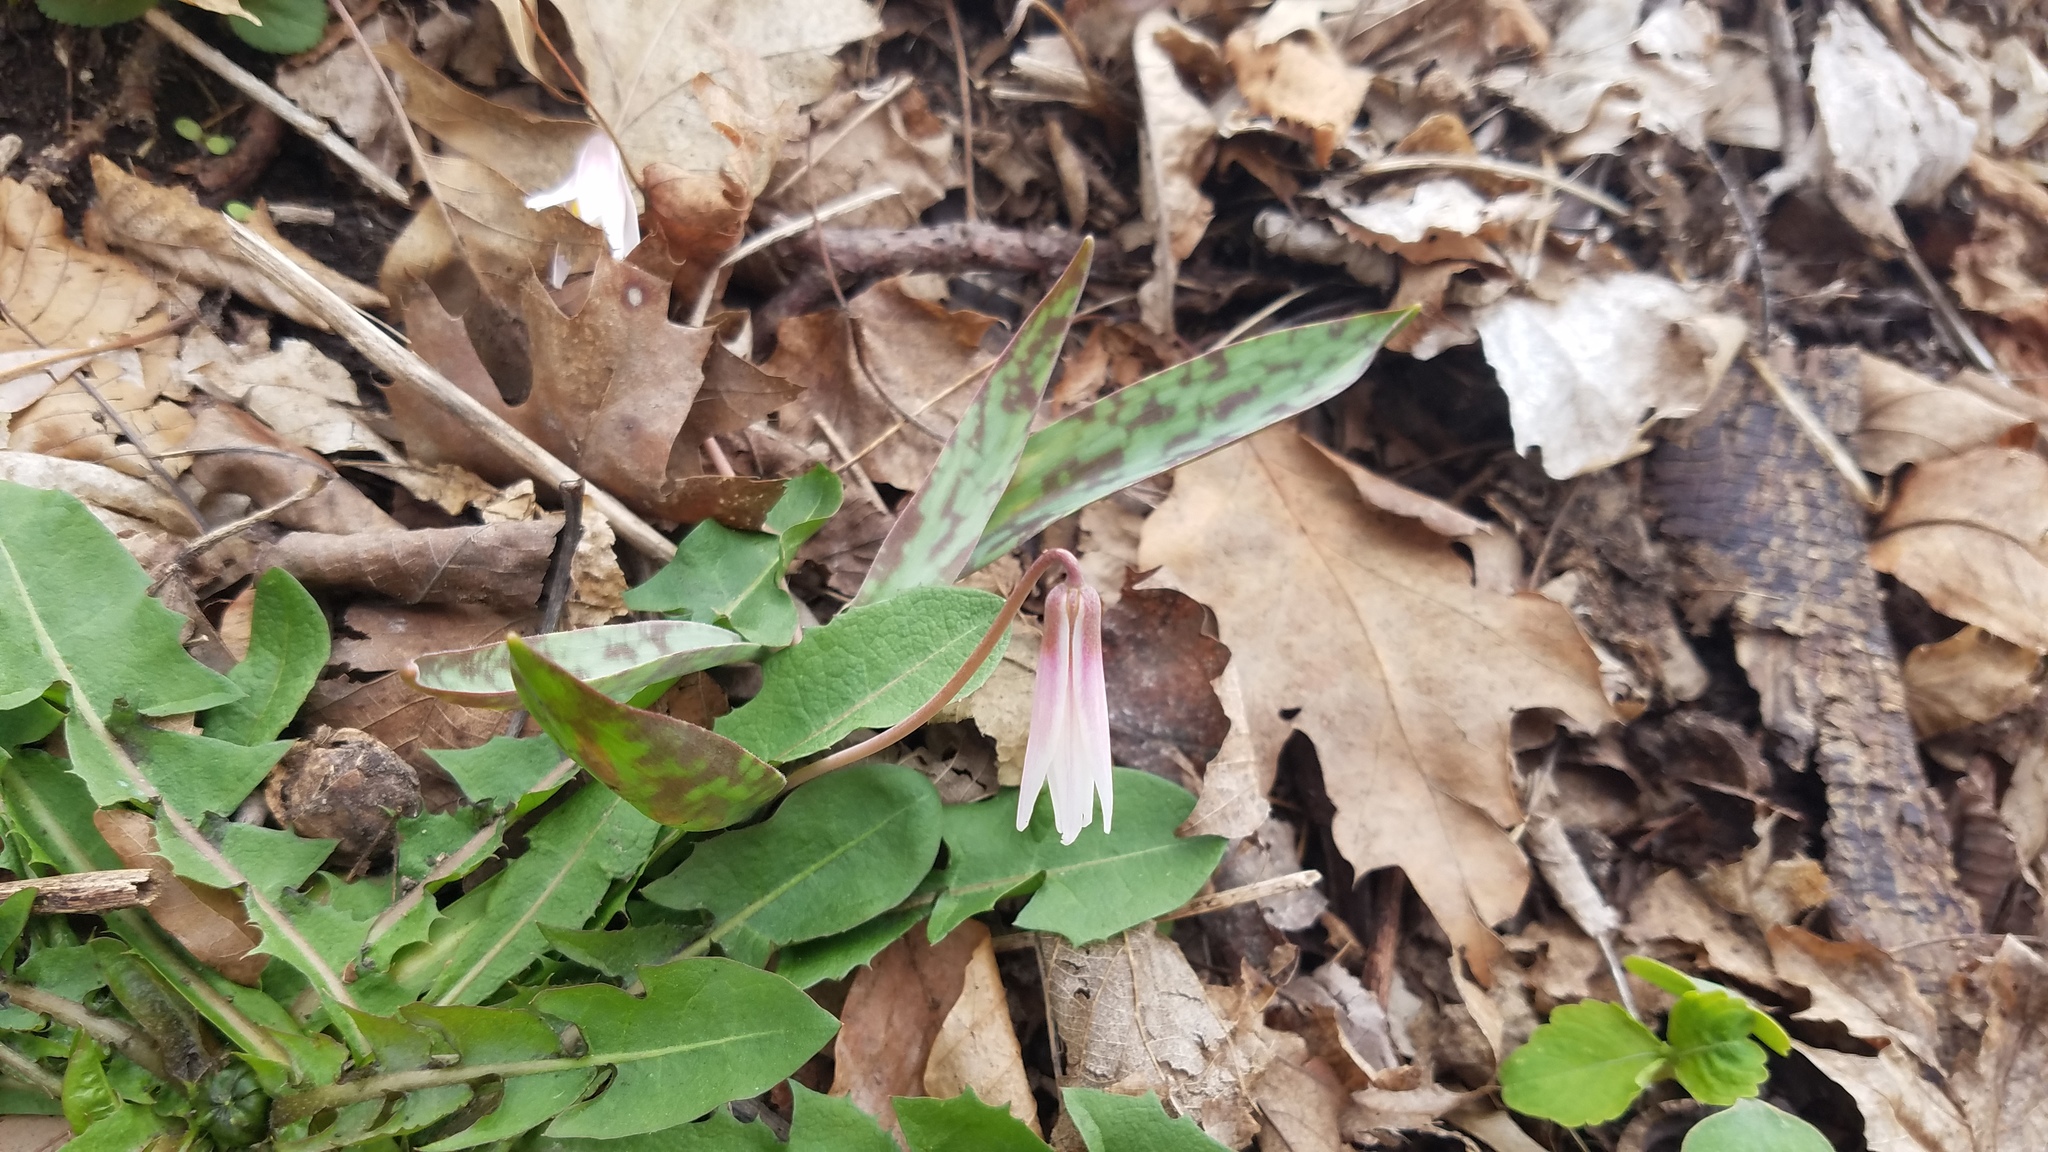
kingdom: Plantae
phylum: Tracheophyta
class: Liliopsida
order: Liliales
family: Liliaceae
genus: Erythronium
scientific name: Erythronium albidum
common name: White trout-lily
